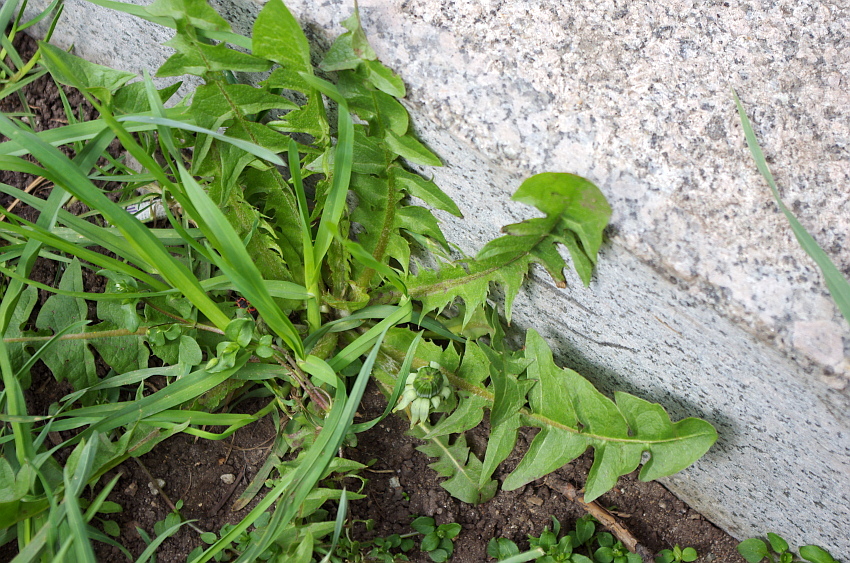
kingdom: Plantae
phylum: Tracheophyta
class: Magnoliopsida
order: Asterales
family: Asteraceae
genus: Taraxacum
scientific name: Taraxacum officinale
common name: Common dandelion
